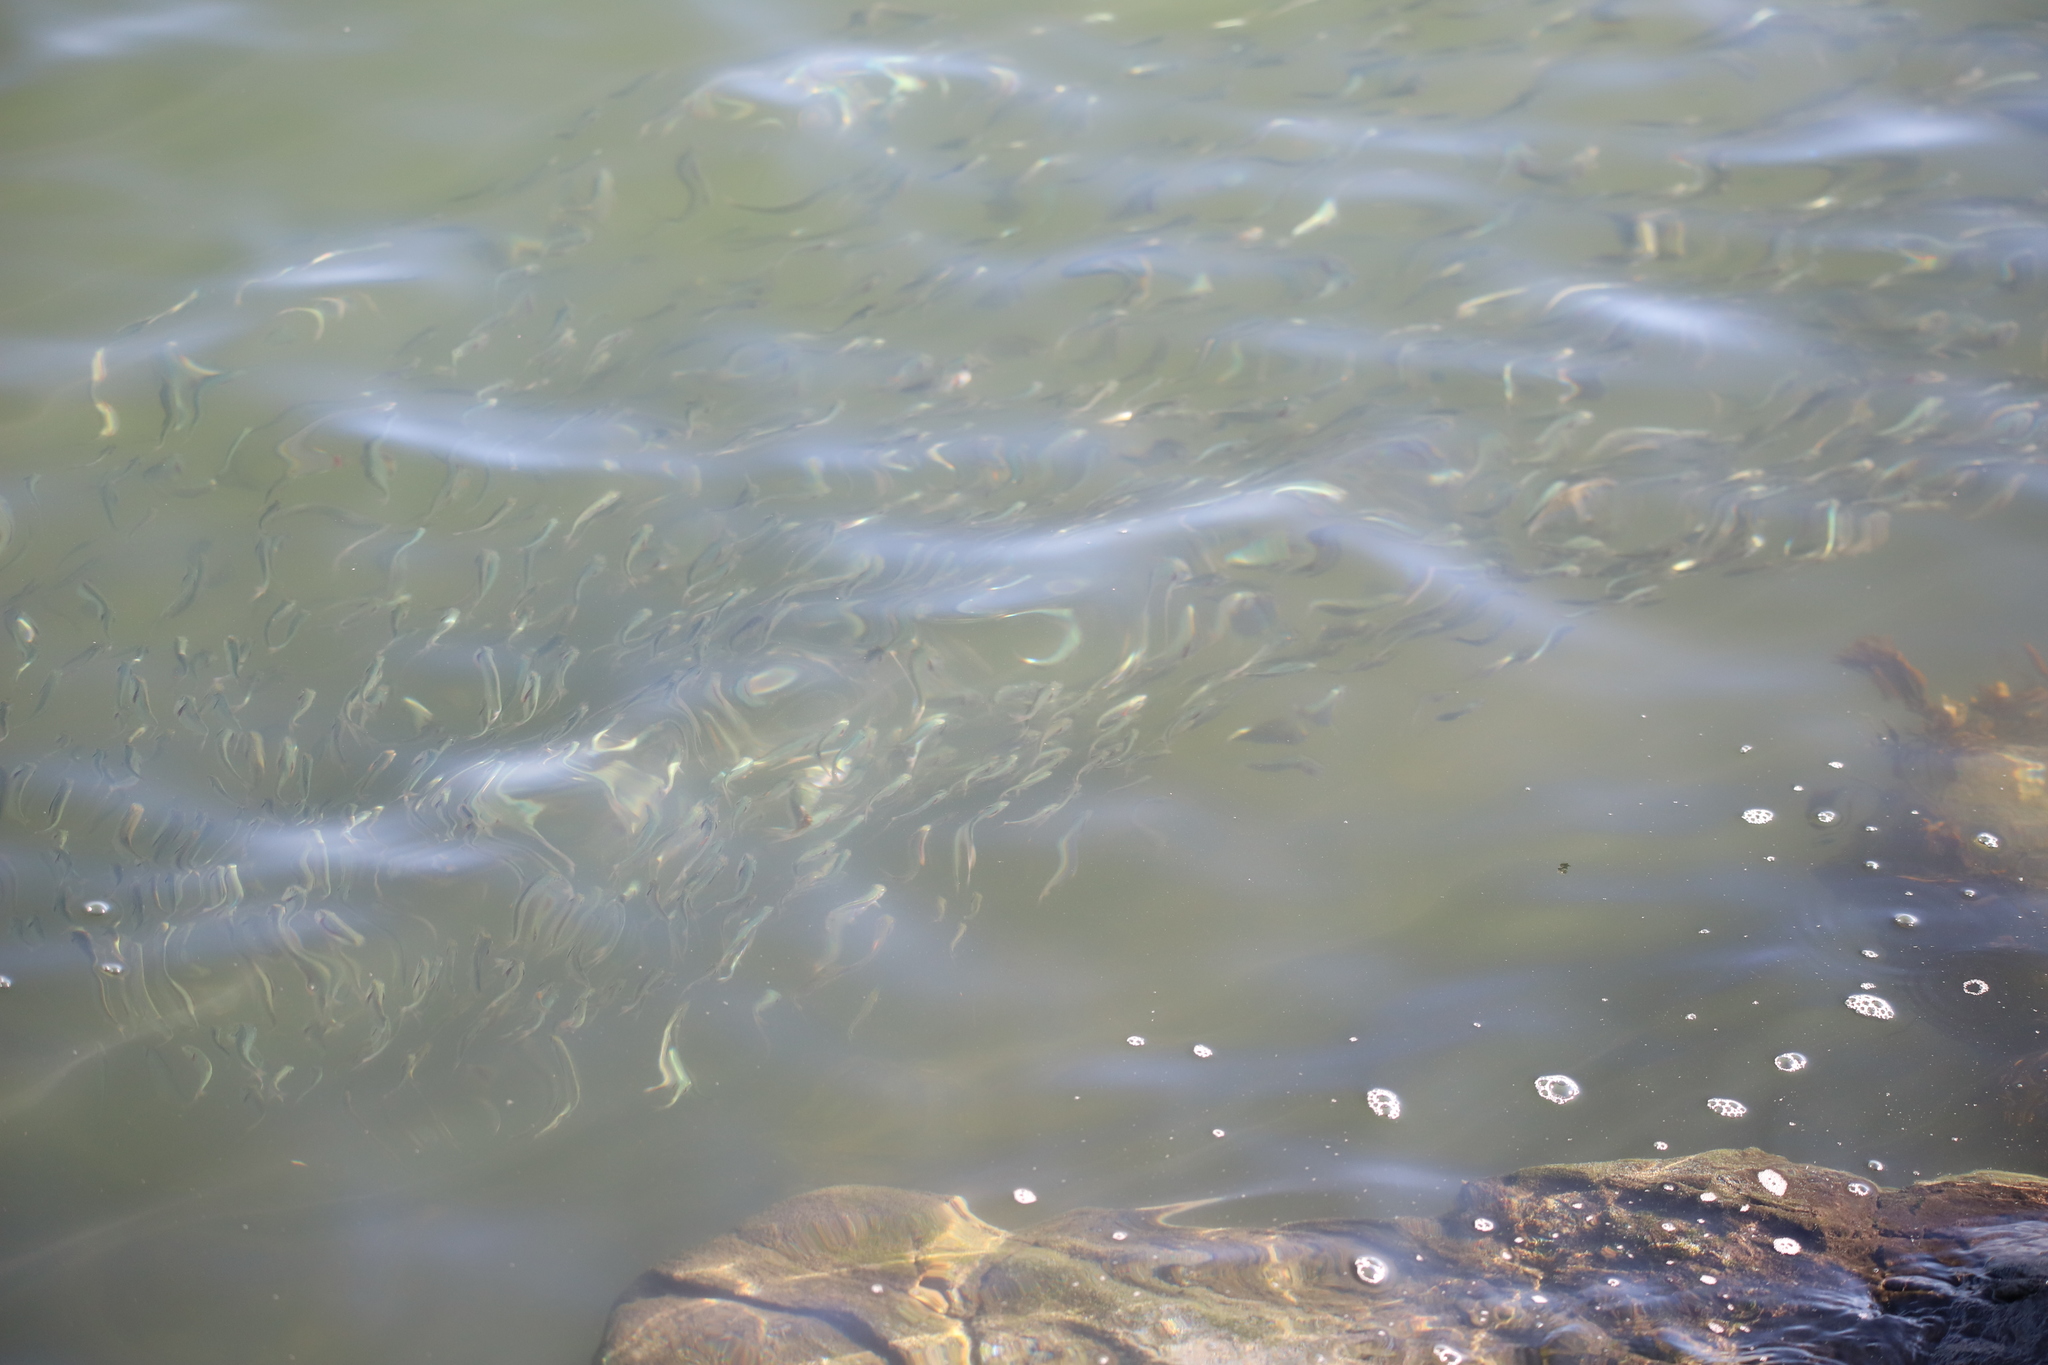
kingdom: Animalia
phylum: Chordata
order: Clupeiformes
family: Clupeidae
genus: Brevoortia
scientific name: Brevoortia tyrannus
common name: Atlantic menhaden
